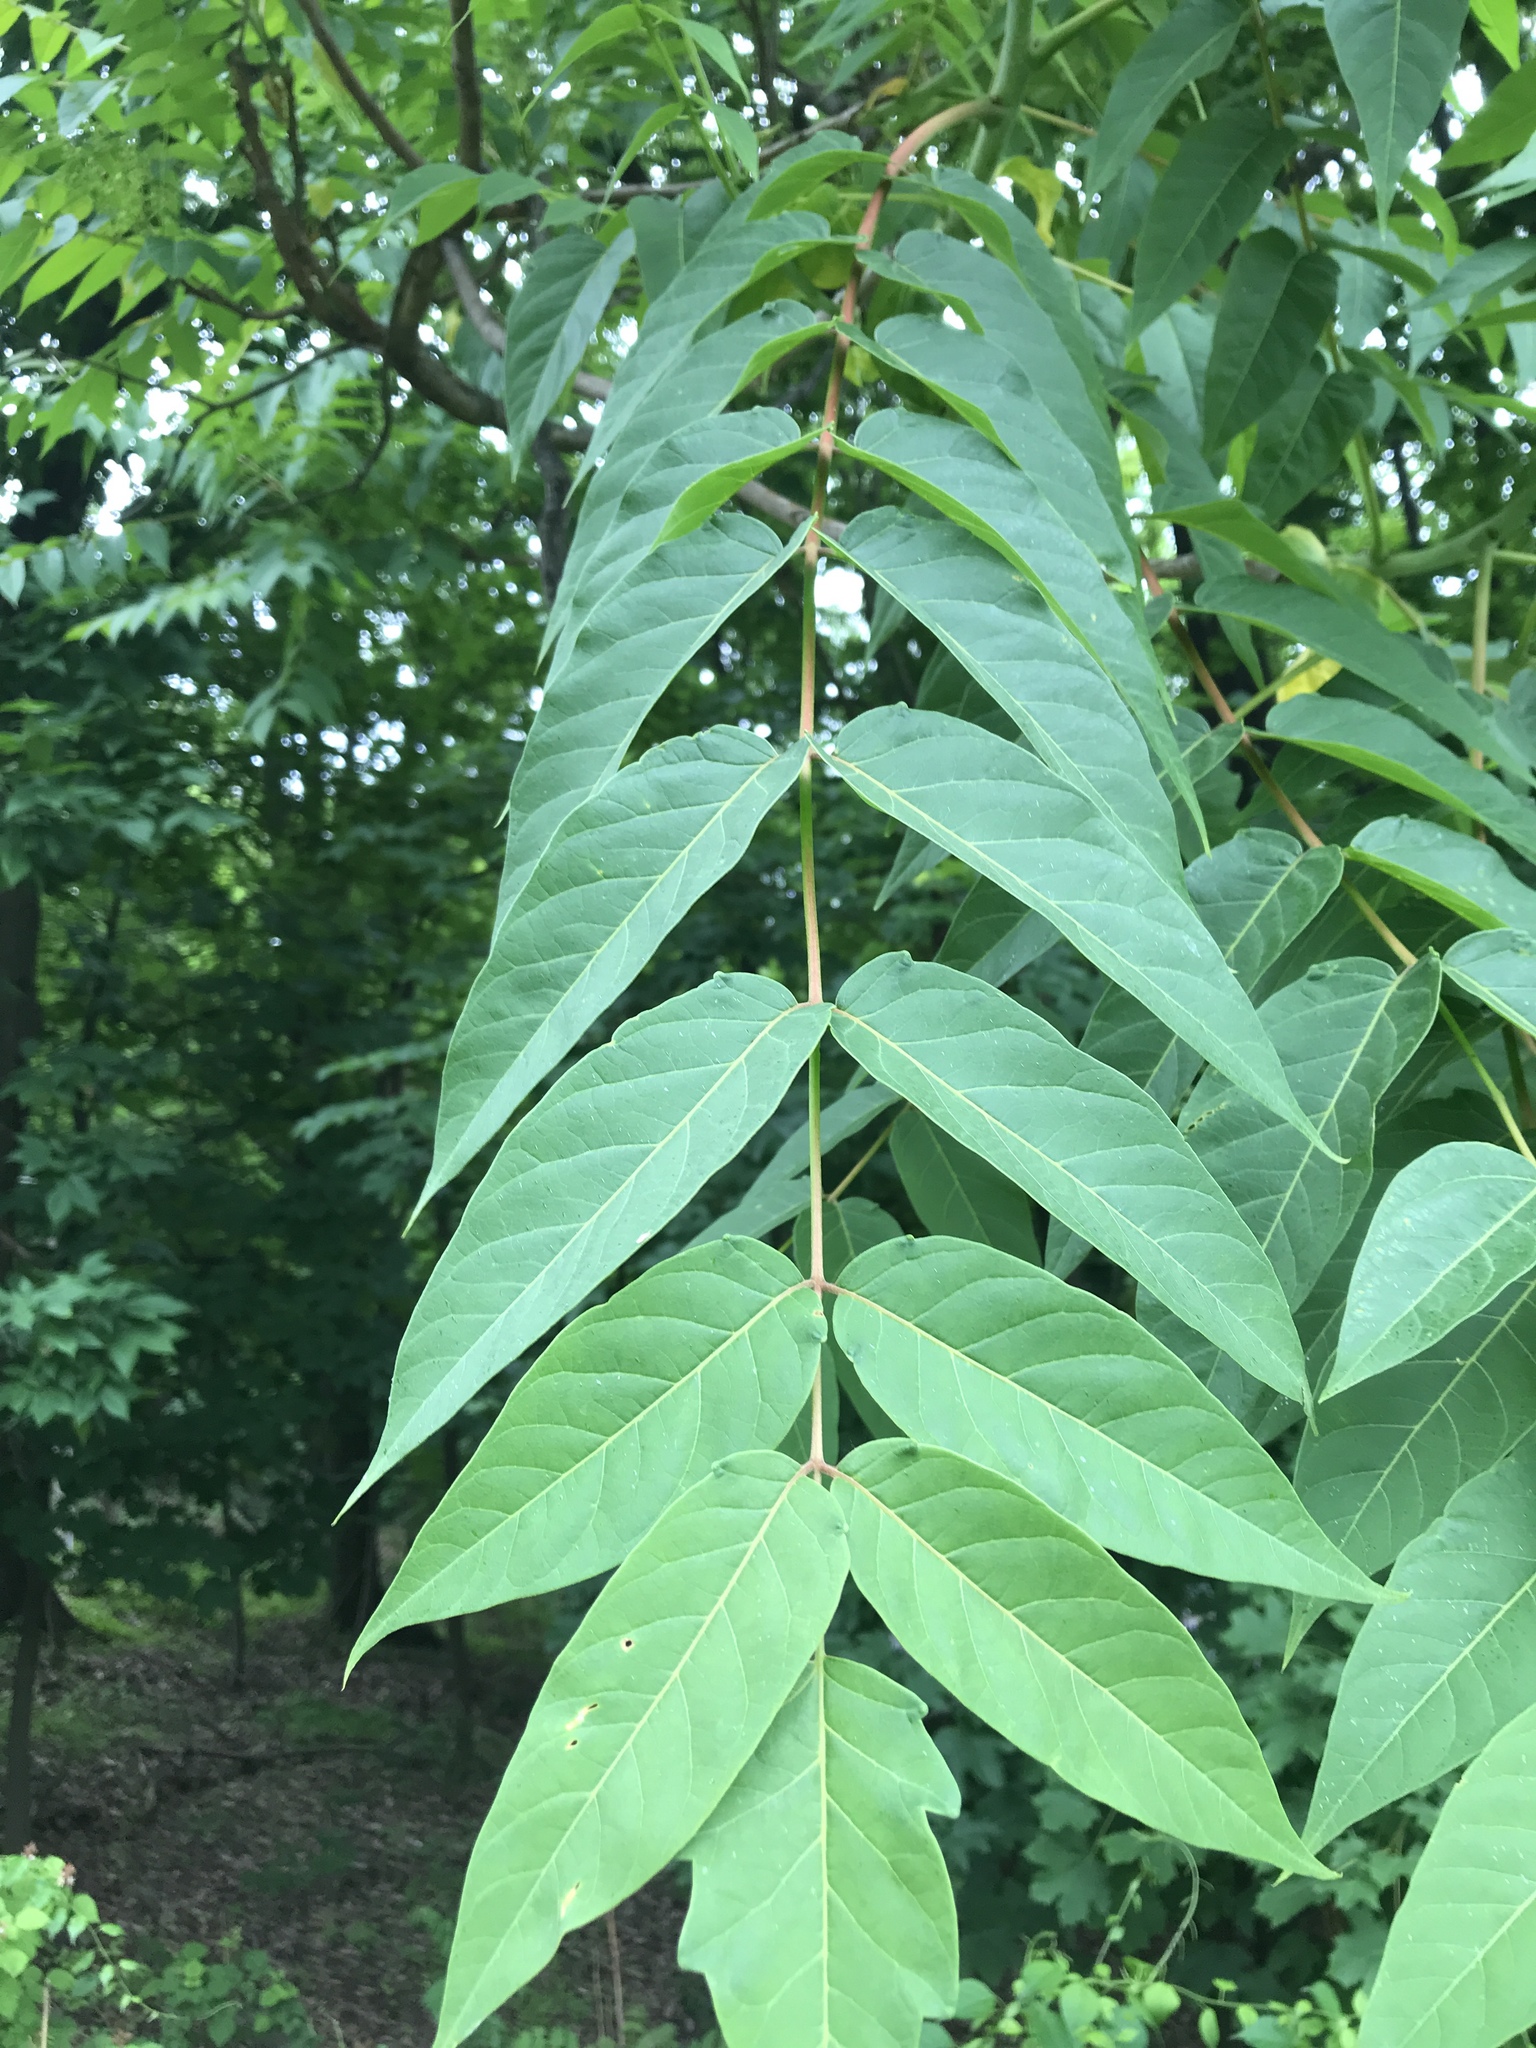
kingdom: Plantae
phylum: Tracheophyta
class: Magnoliopsida
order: Sapindales
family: Simaroubaceae
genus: Ailanthus
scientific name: Ailanthus altissima
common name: Tree-of-heaven
